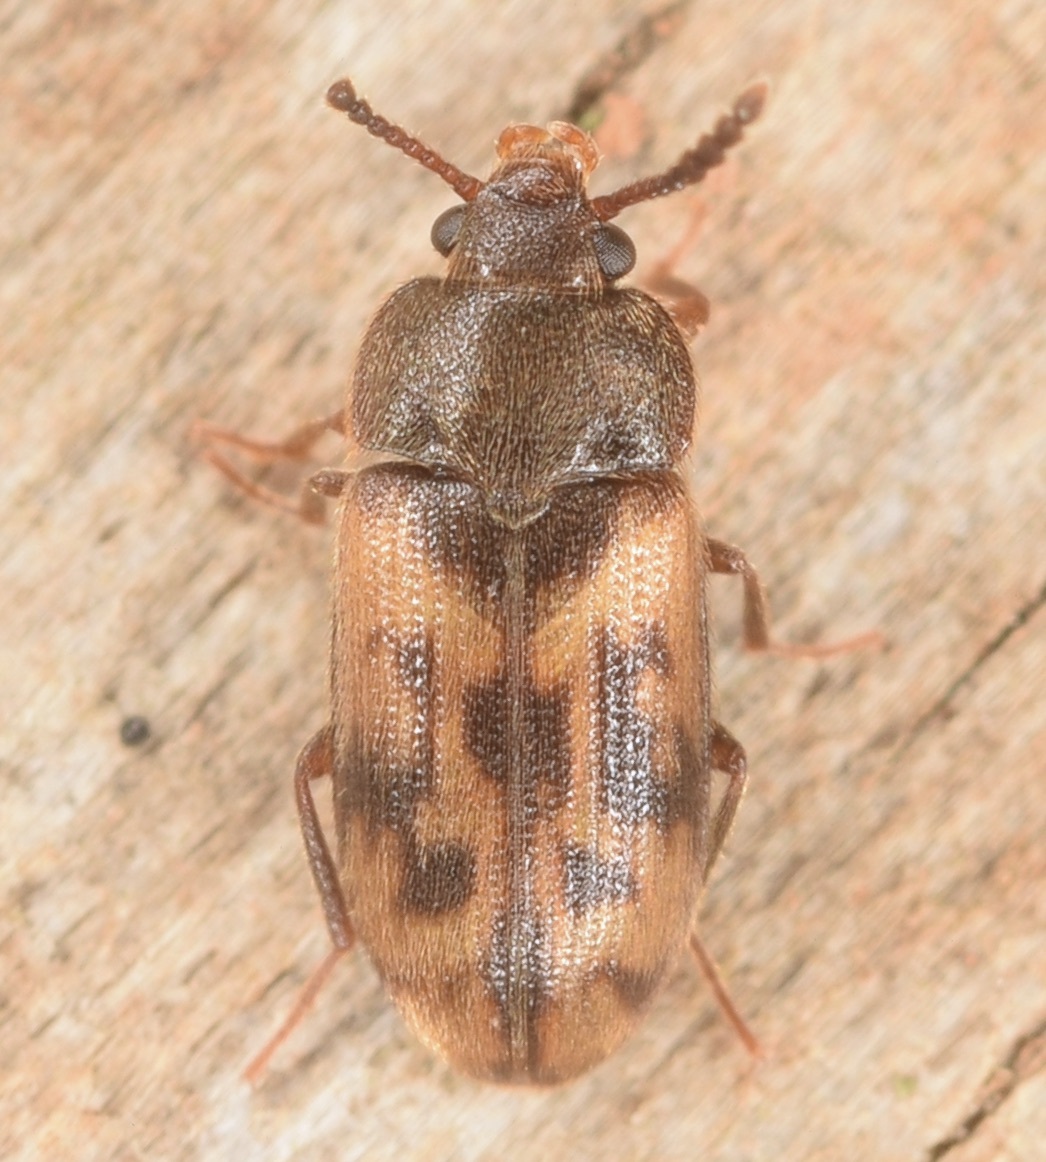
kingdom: Animalia
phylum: Arthropoda
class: Insecta
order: Coleoptera
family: Mycetophagidae
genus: Mycetophagus
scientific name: Mycetophagus pluripunctatus
